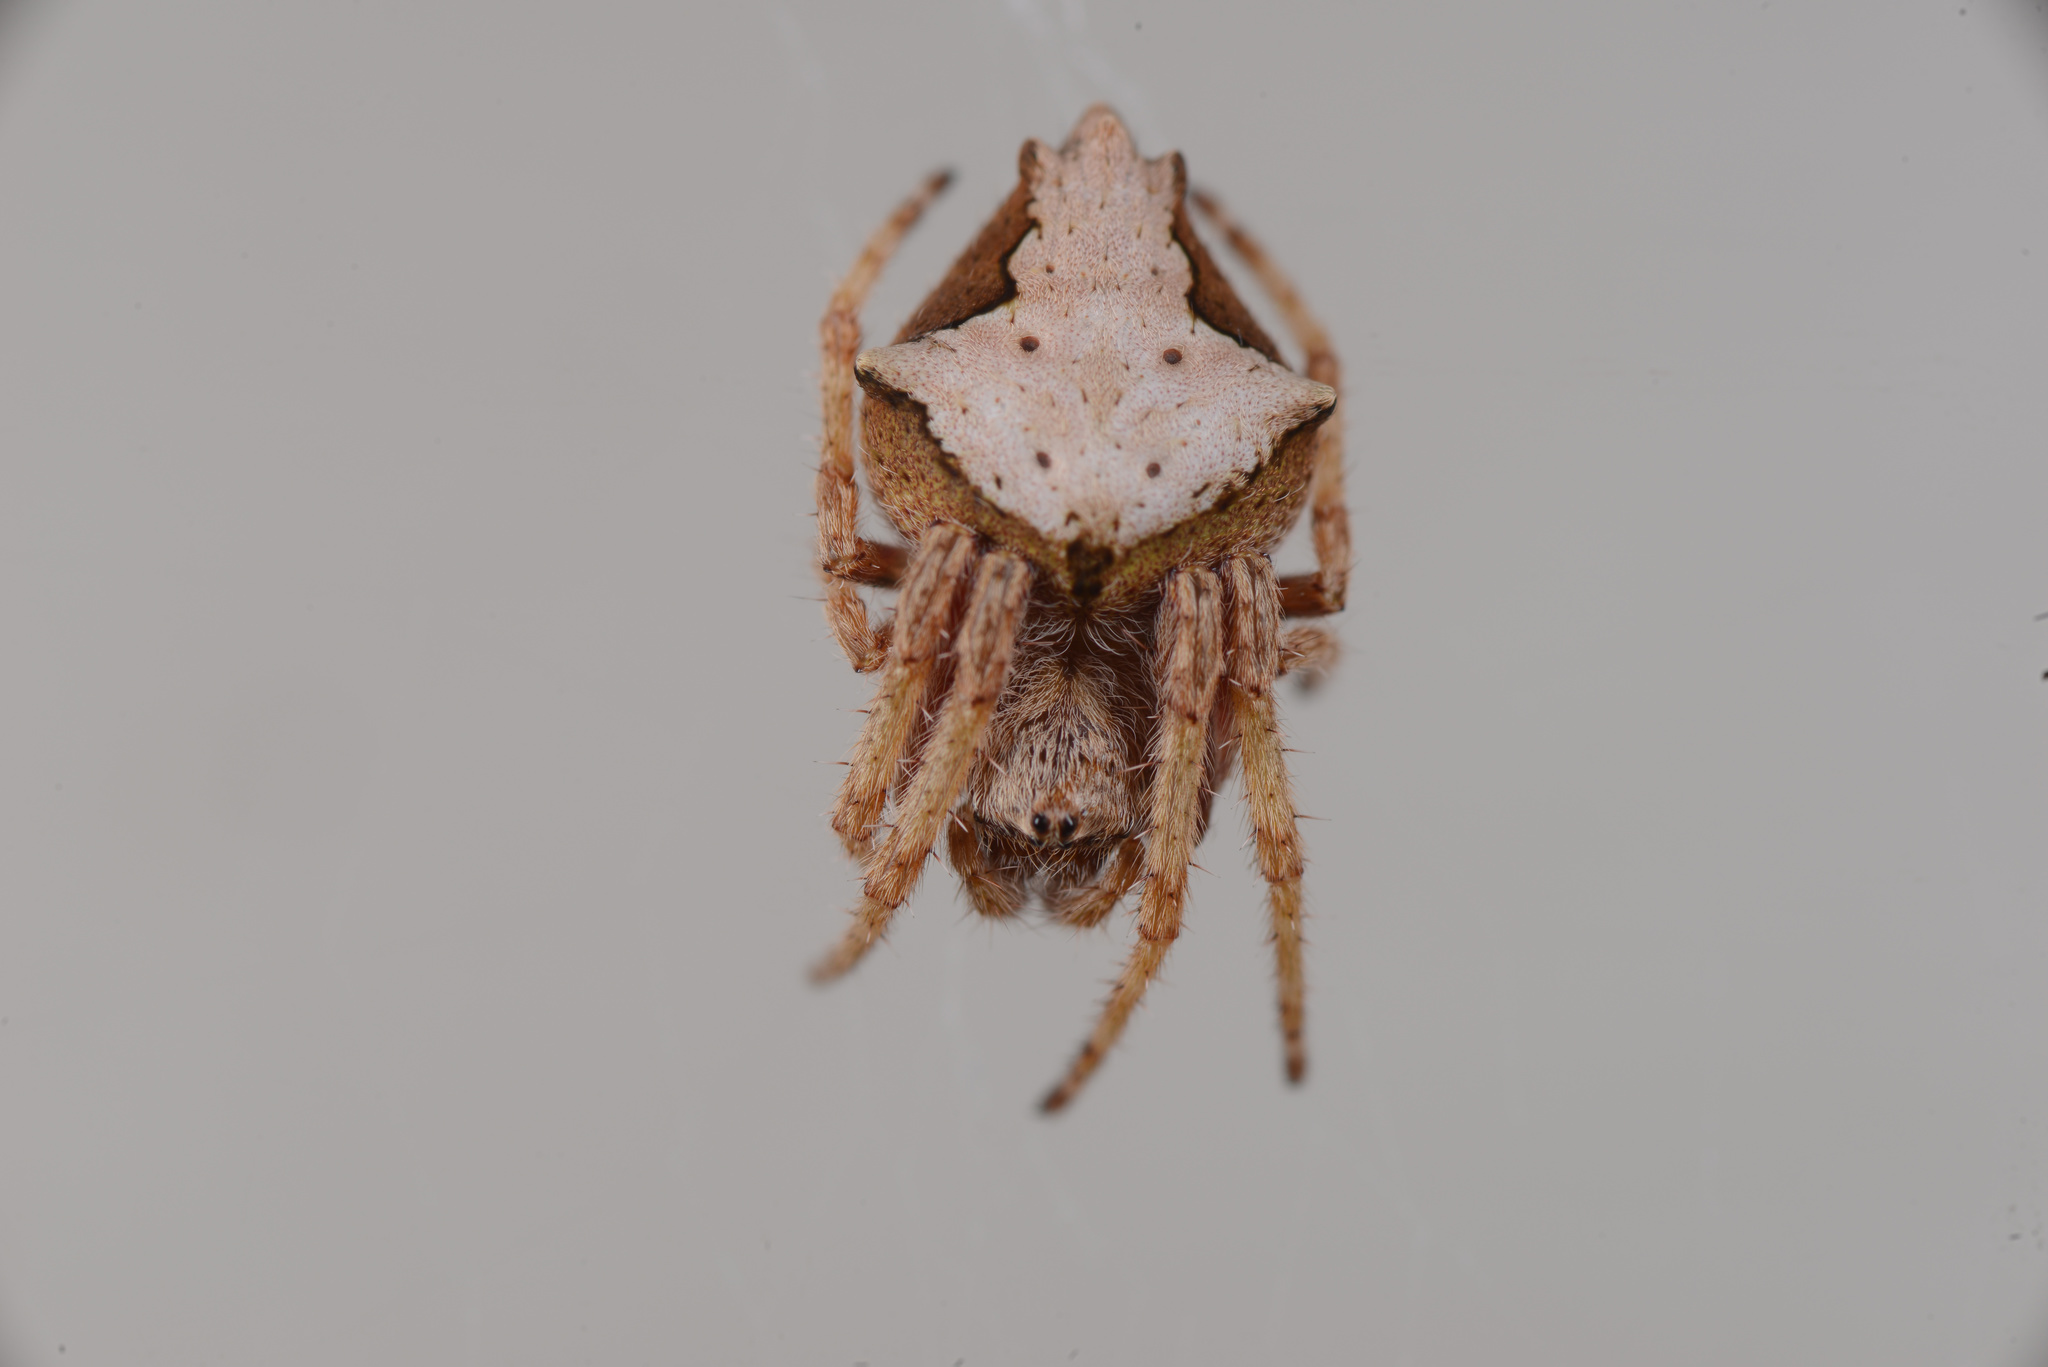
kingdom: Animalia
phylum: Arthropoda
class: Arachnida
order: Araneae
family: Araneidae
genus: Eriophora
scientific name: Eriophora pustulosa
